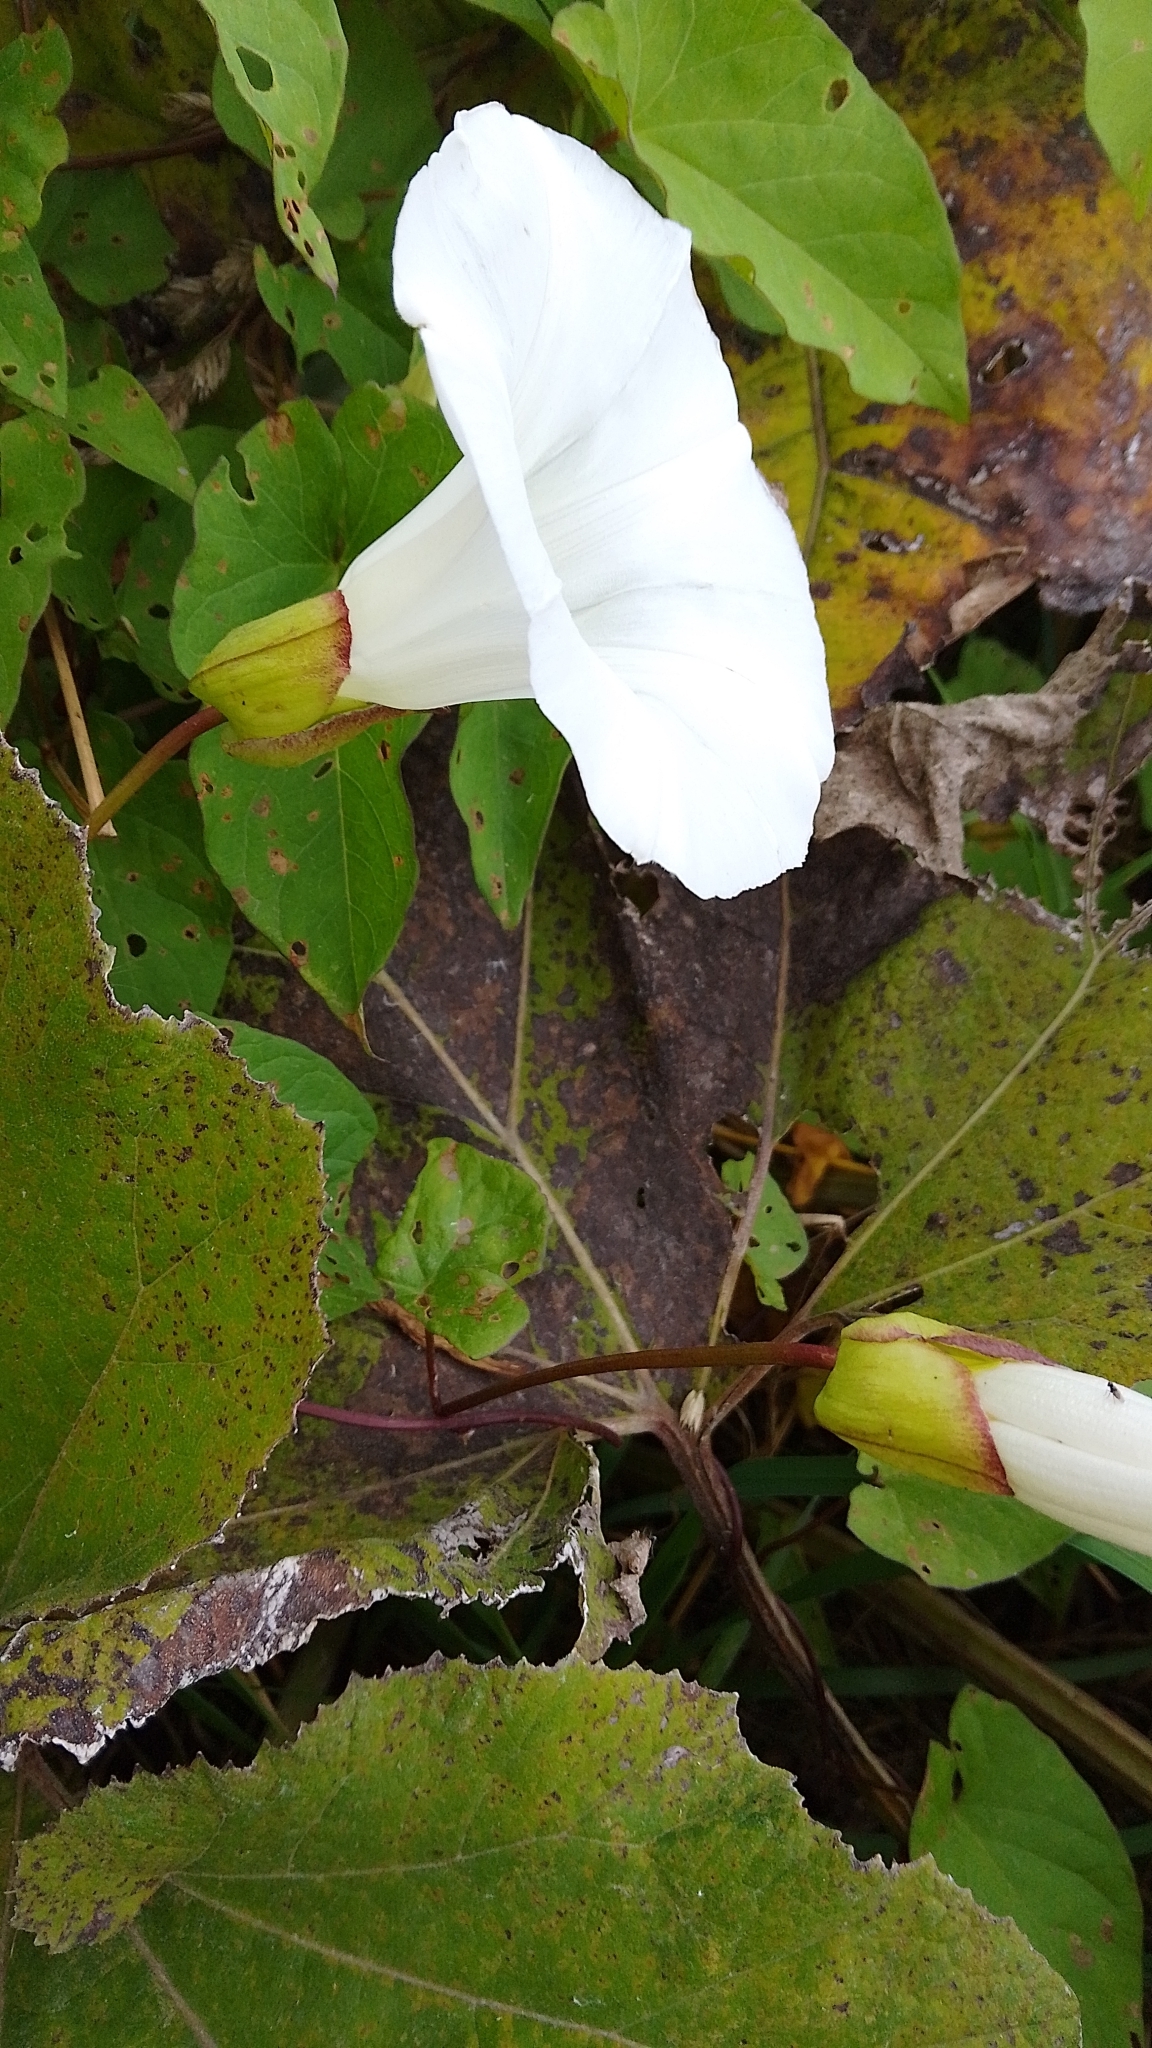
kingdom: Plantae
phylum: Tracheophyta
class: Magnoliopsida
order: Solanales
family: Convolvulaceae
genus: Calystegia
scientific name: Calystegia silvatica
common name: Large bindweed
